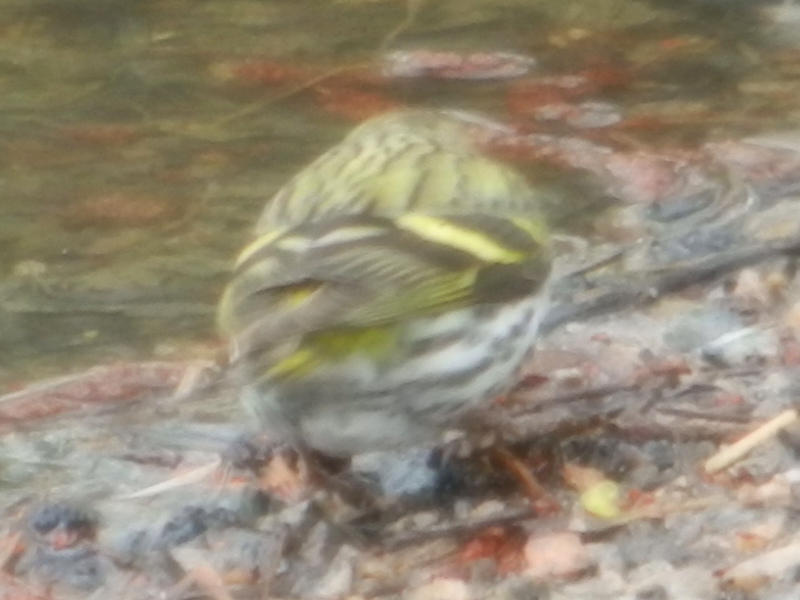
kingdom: Animalia
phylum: Chordata
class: Aves
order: Passeriformes
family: Fringillidae
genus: Spinus
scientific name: Spinus spinus
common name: Eurasian siskin
